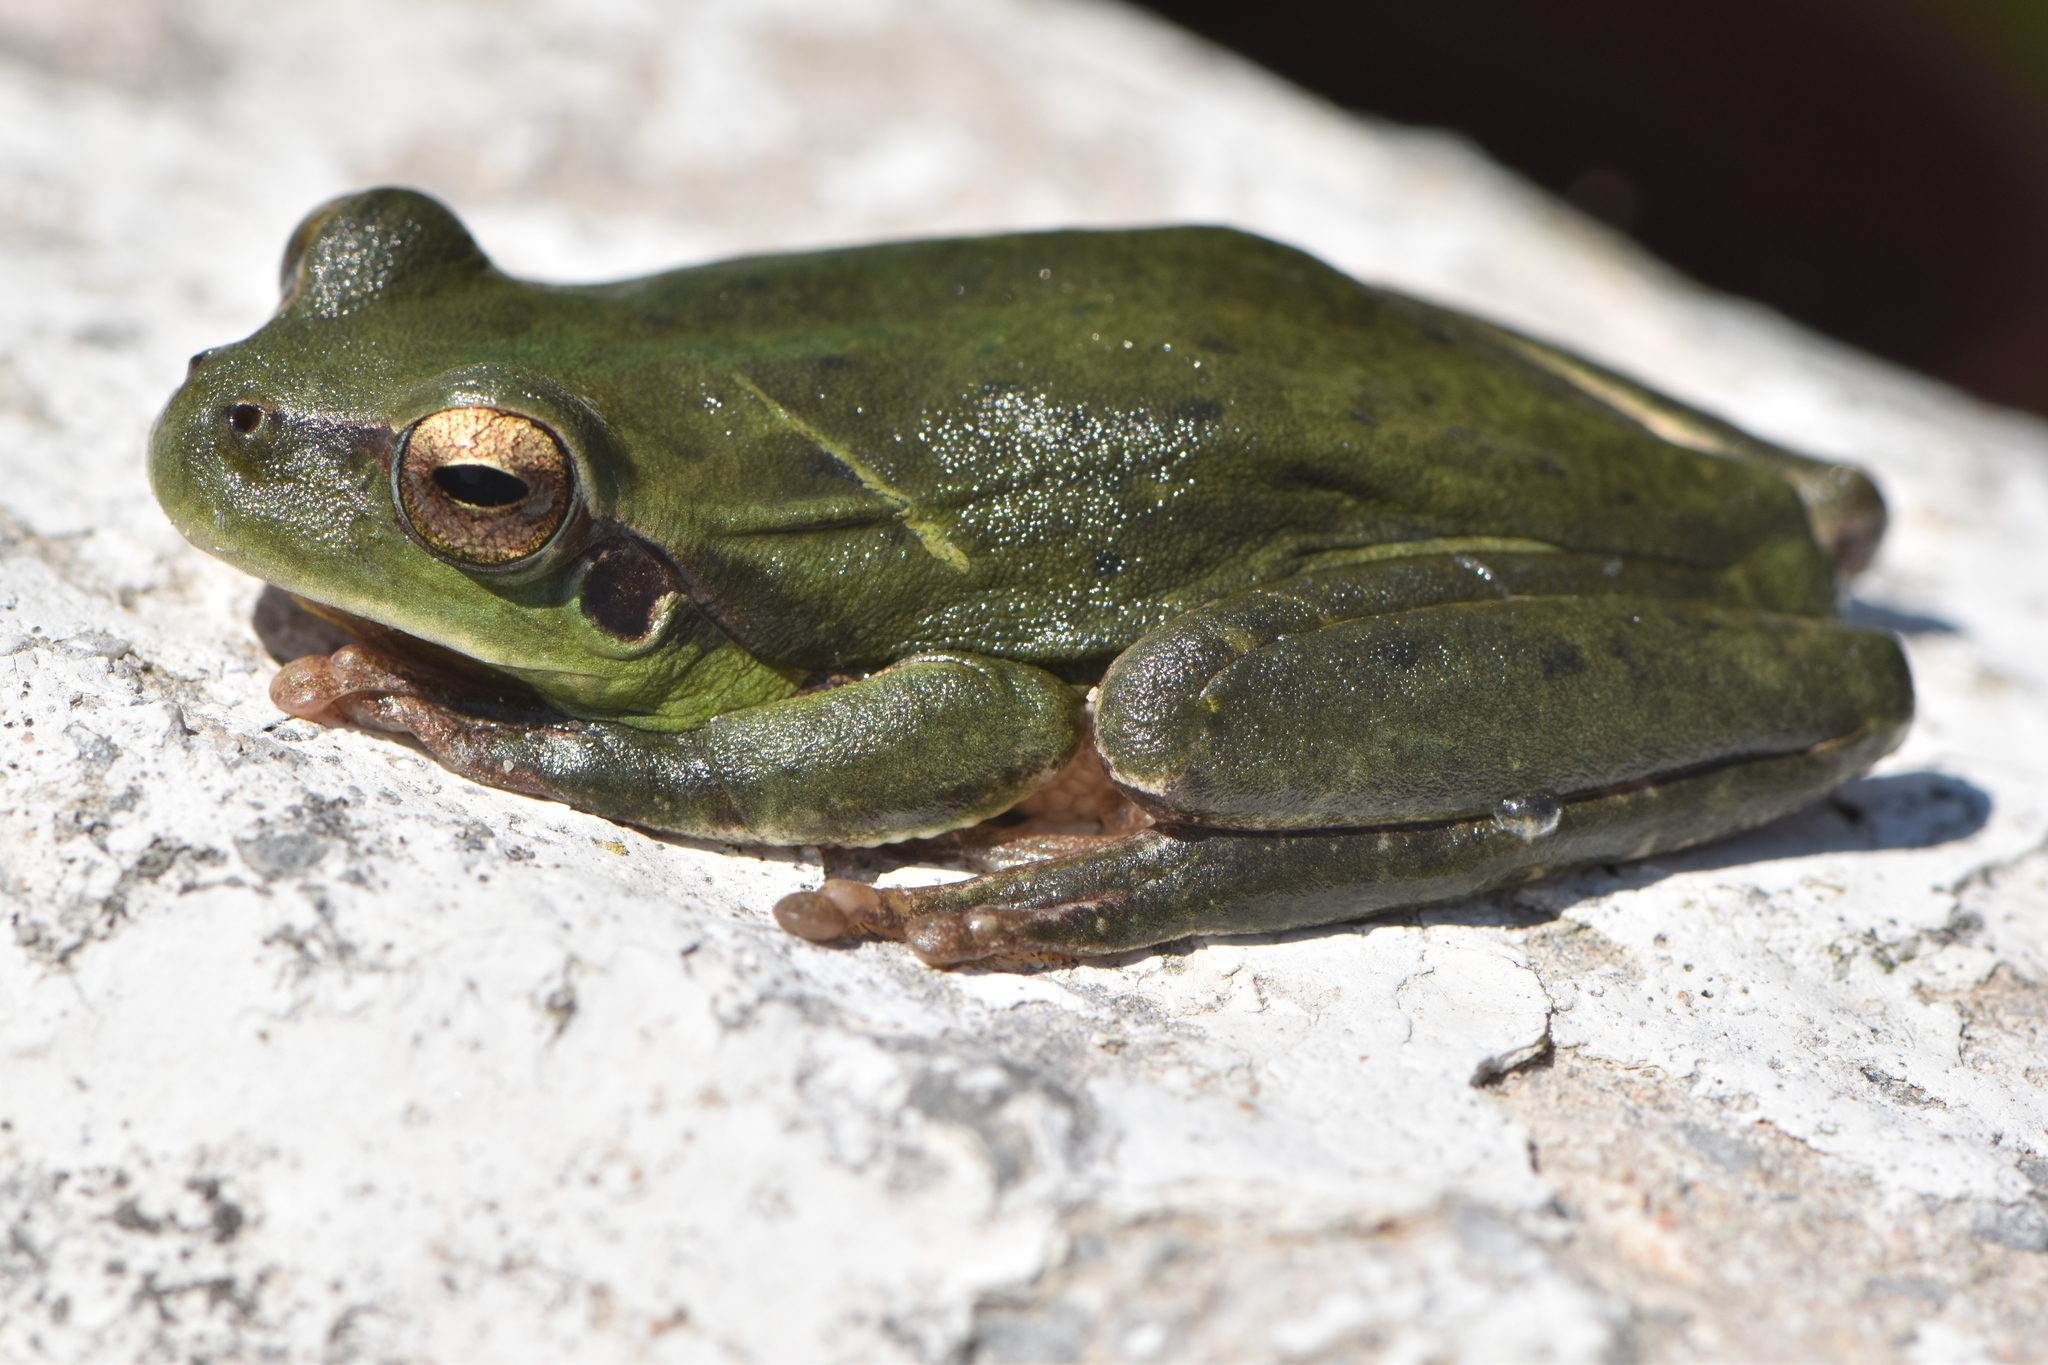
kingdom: Animalia
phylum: Chordata
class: Amphibia
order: Anura
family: Hylidae
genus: Hyla
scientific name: Hyla meridionalis
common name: Stripeless tree frog
